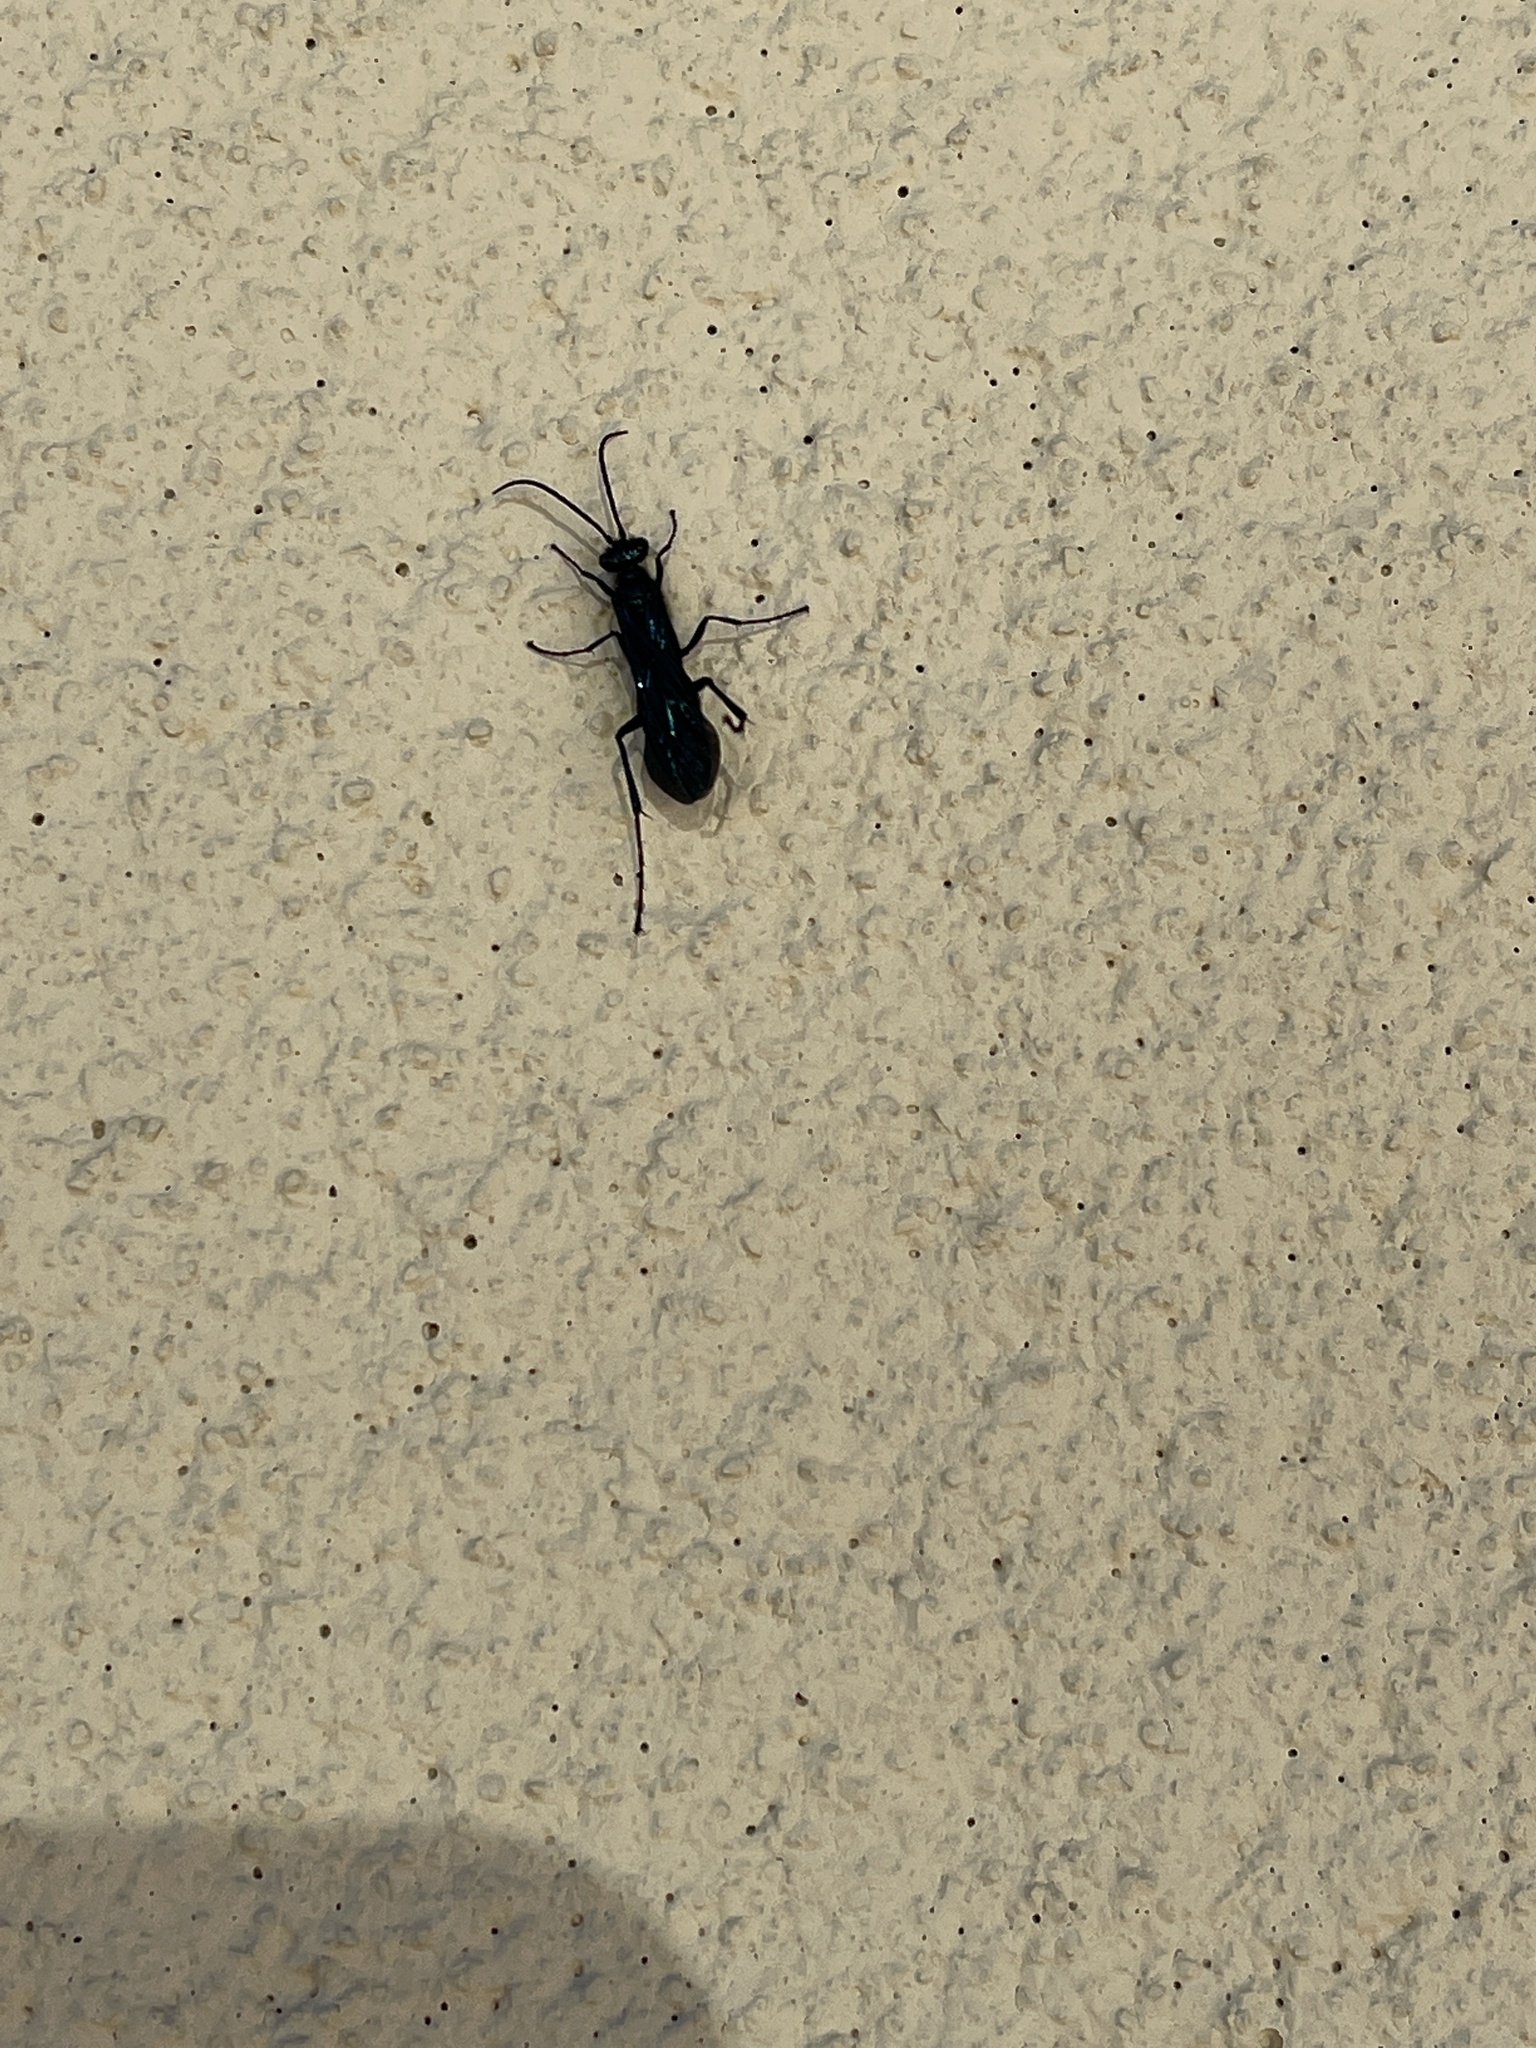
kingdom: Animalia
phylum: Arthropoda
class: Insecta
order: Hymenoptera
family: Sphecidae
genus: Chalybion
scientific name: Chalybion californicum
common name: Mud dauber
